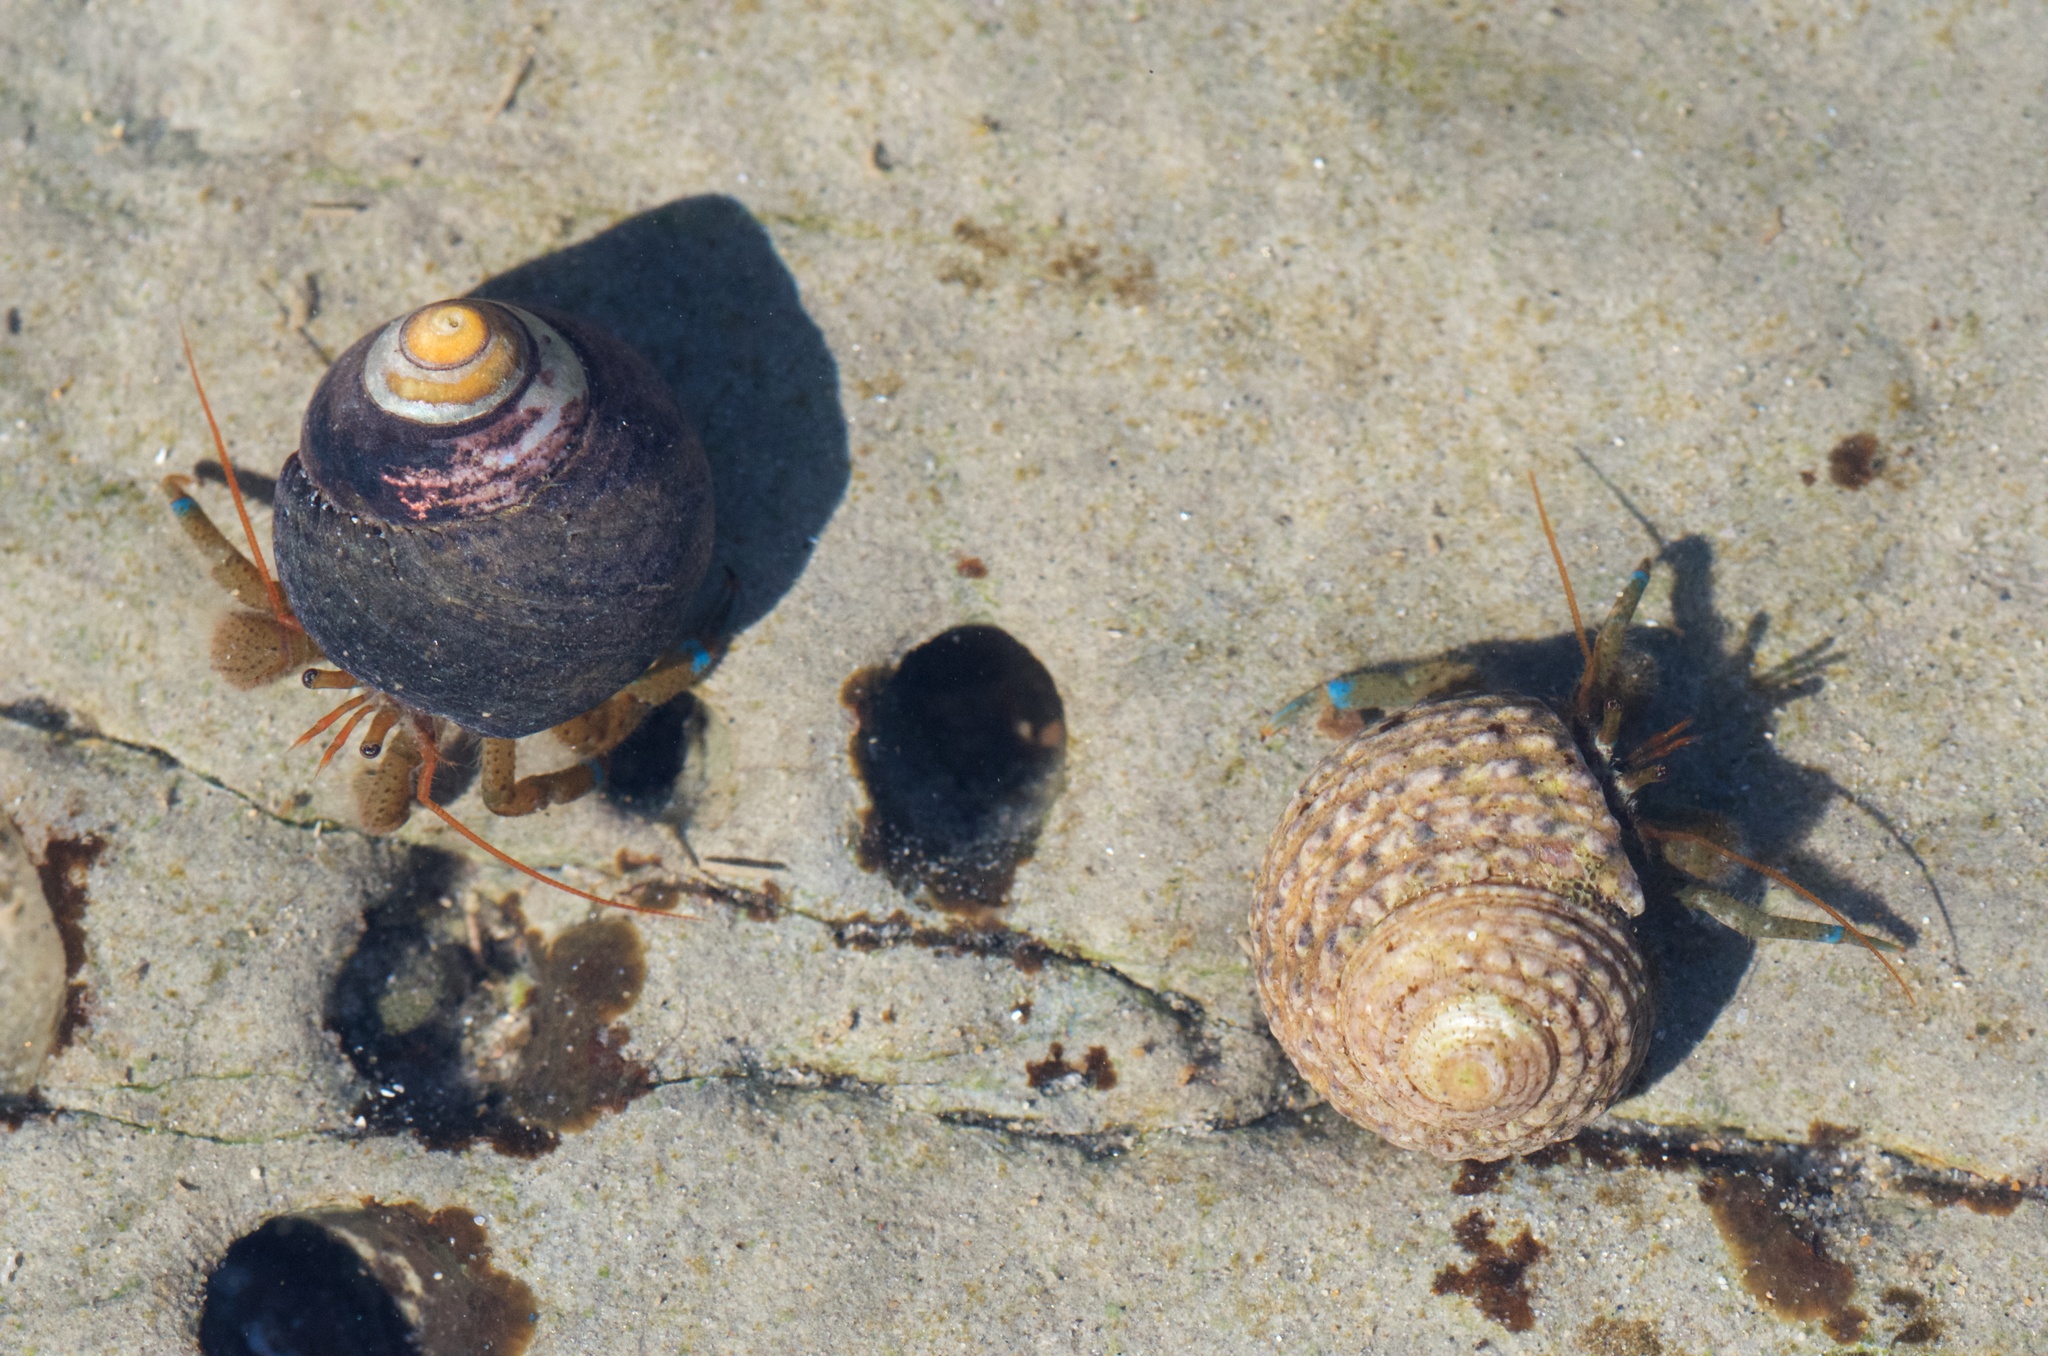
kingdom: Animalia
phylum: Arthropoda
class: Malacostraca
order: Decapoda
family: Paguridae
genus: Pagurus
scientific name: Pagurus samuelis
